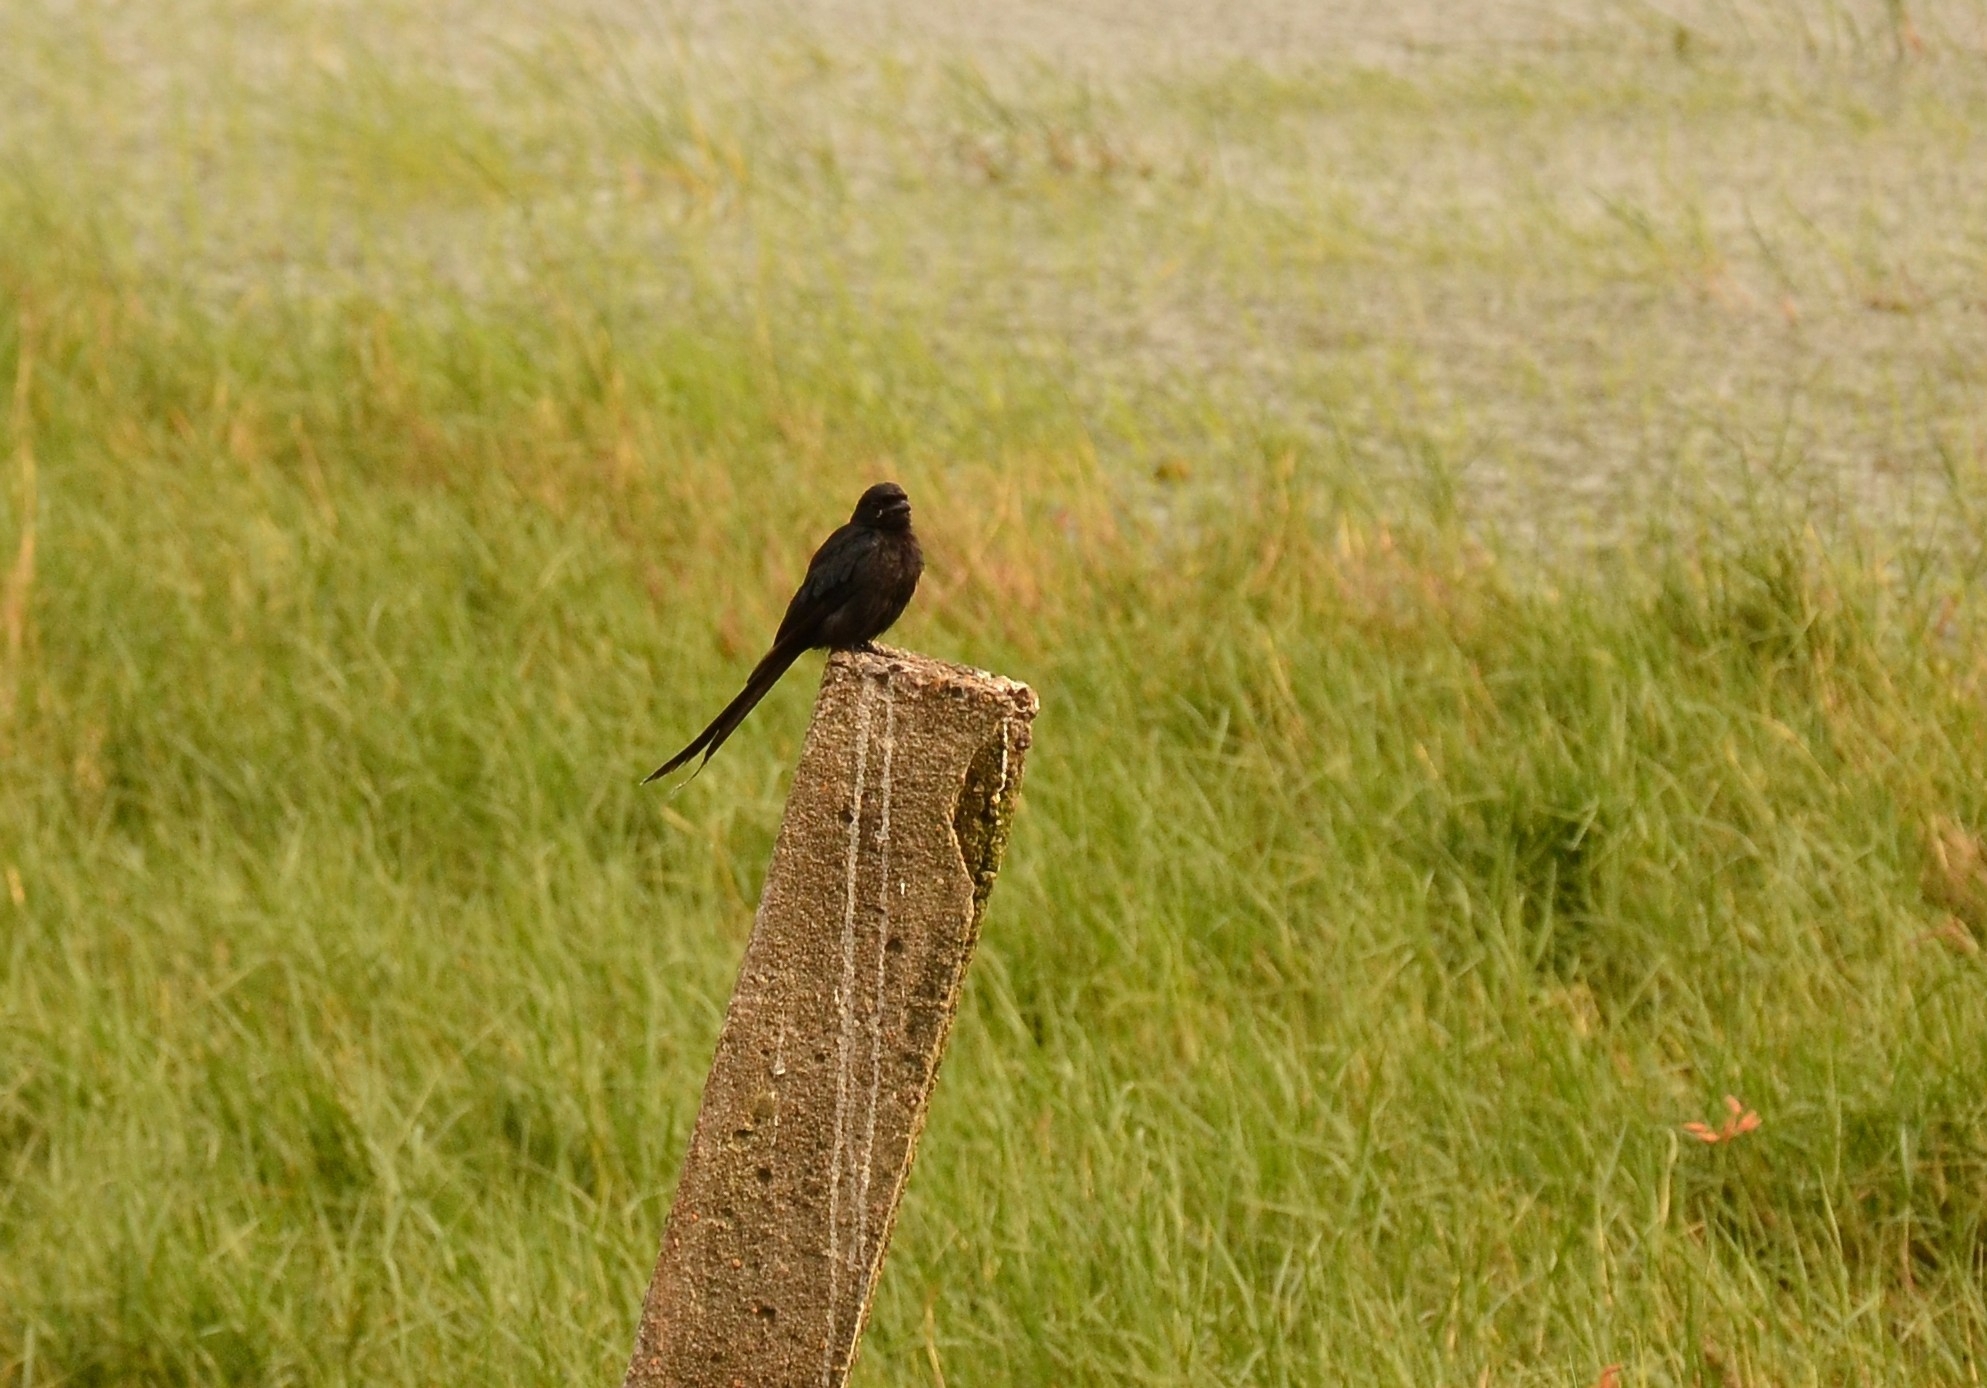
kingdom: Animalia
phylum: Chordata
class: Aves
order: Passeriformes
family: Dicruridae
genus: Dicrurus
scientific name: Dicrurus macrocercus
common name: Black drongo
